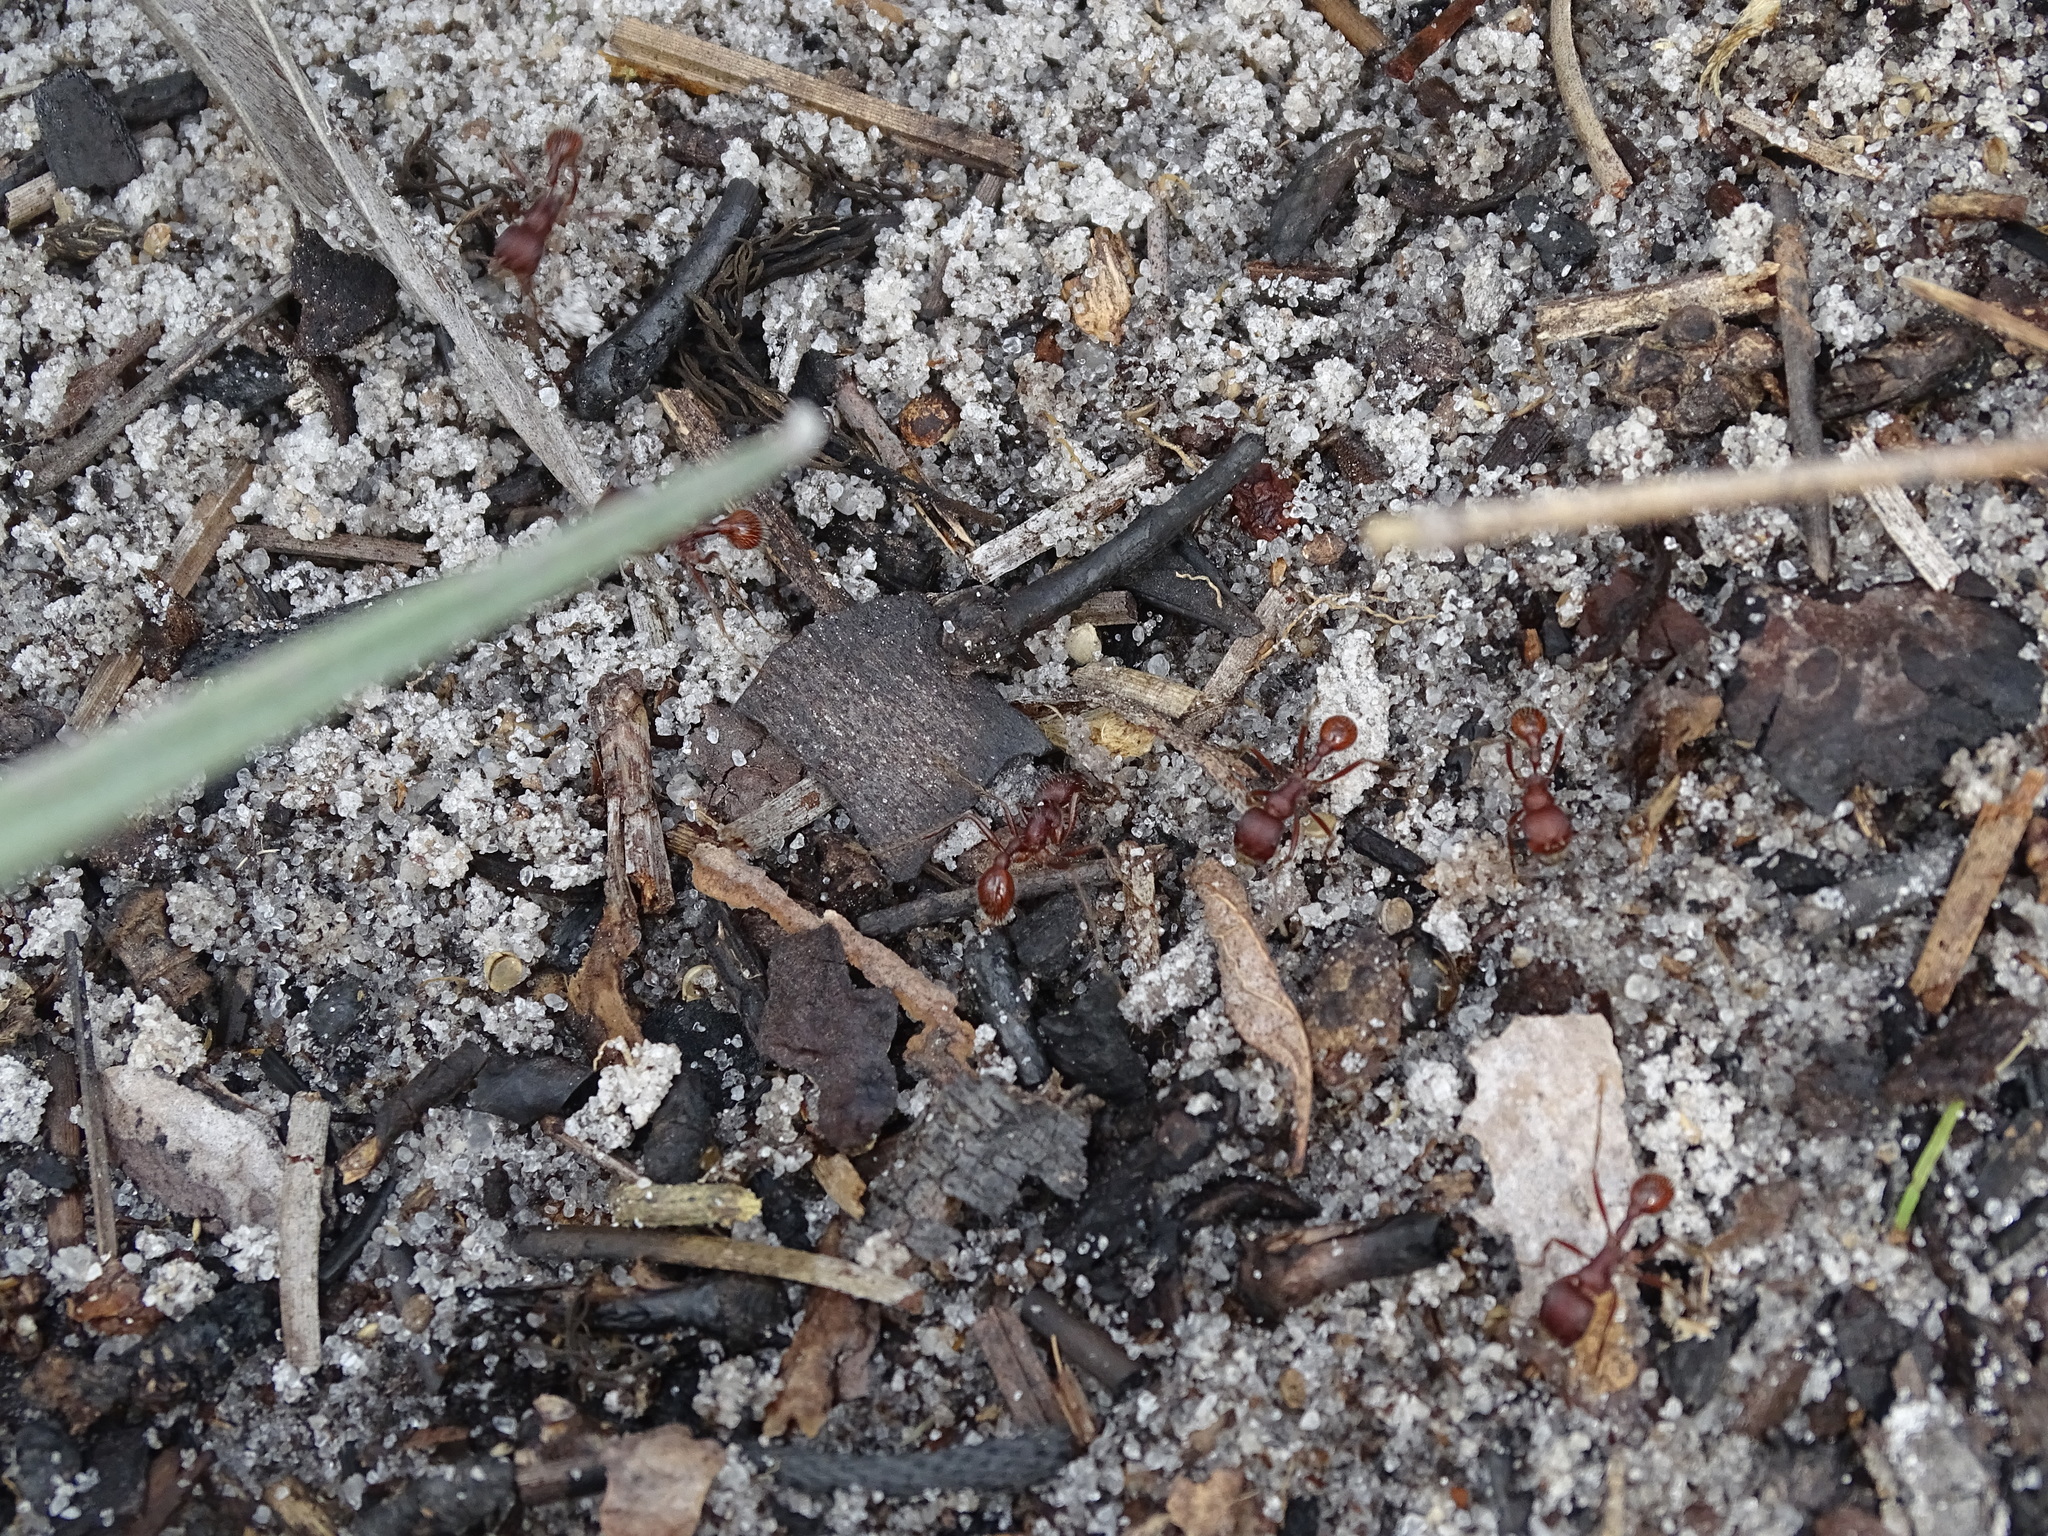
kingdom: Animalia
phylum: Arthropoda
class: Insecta
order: Hymenoptera
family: Formicidae
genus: Pogonomyrmex
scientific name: Pogonomyrmex badius
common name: Florida harvester ant
